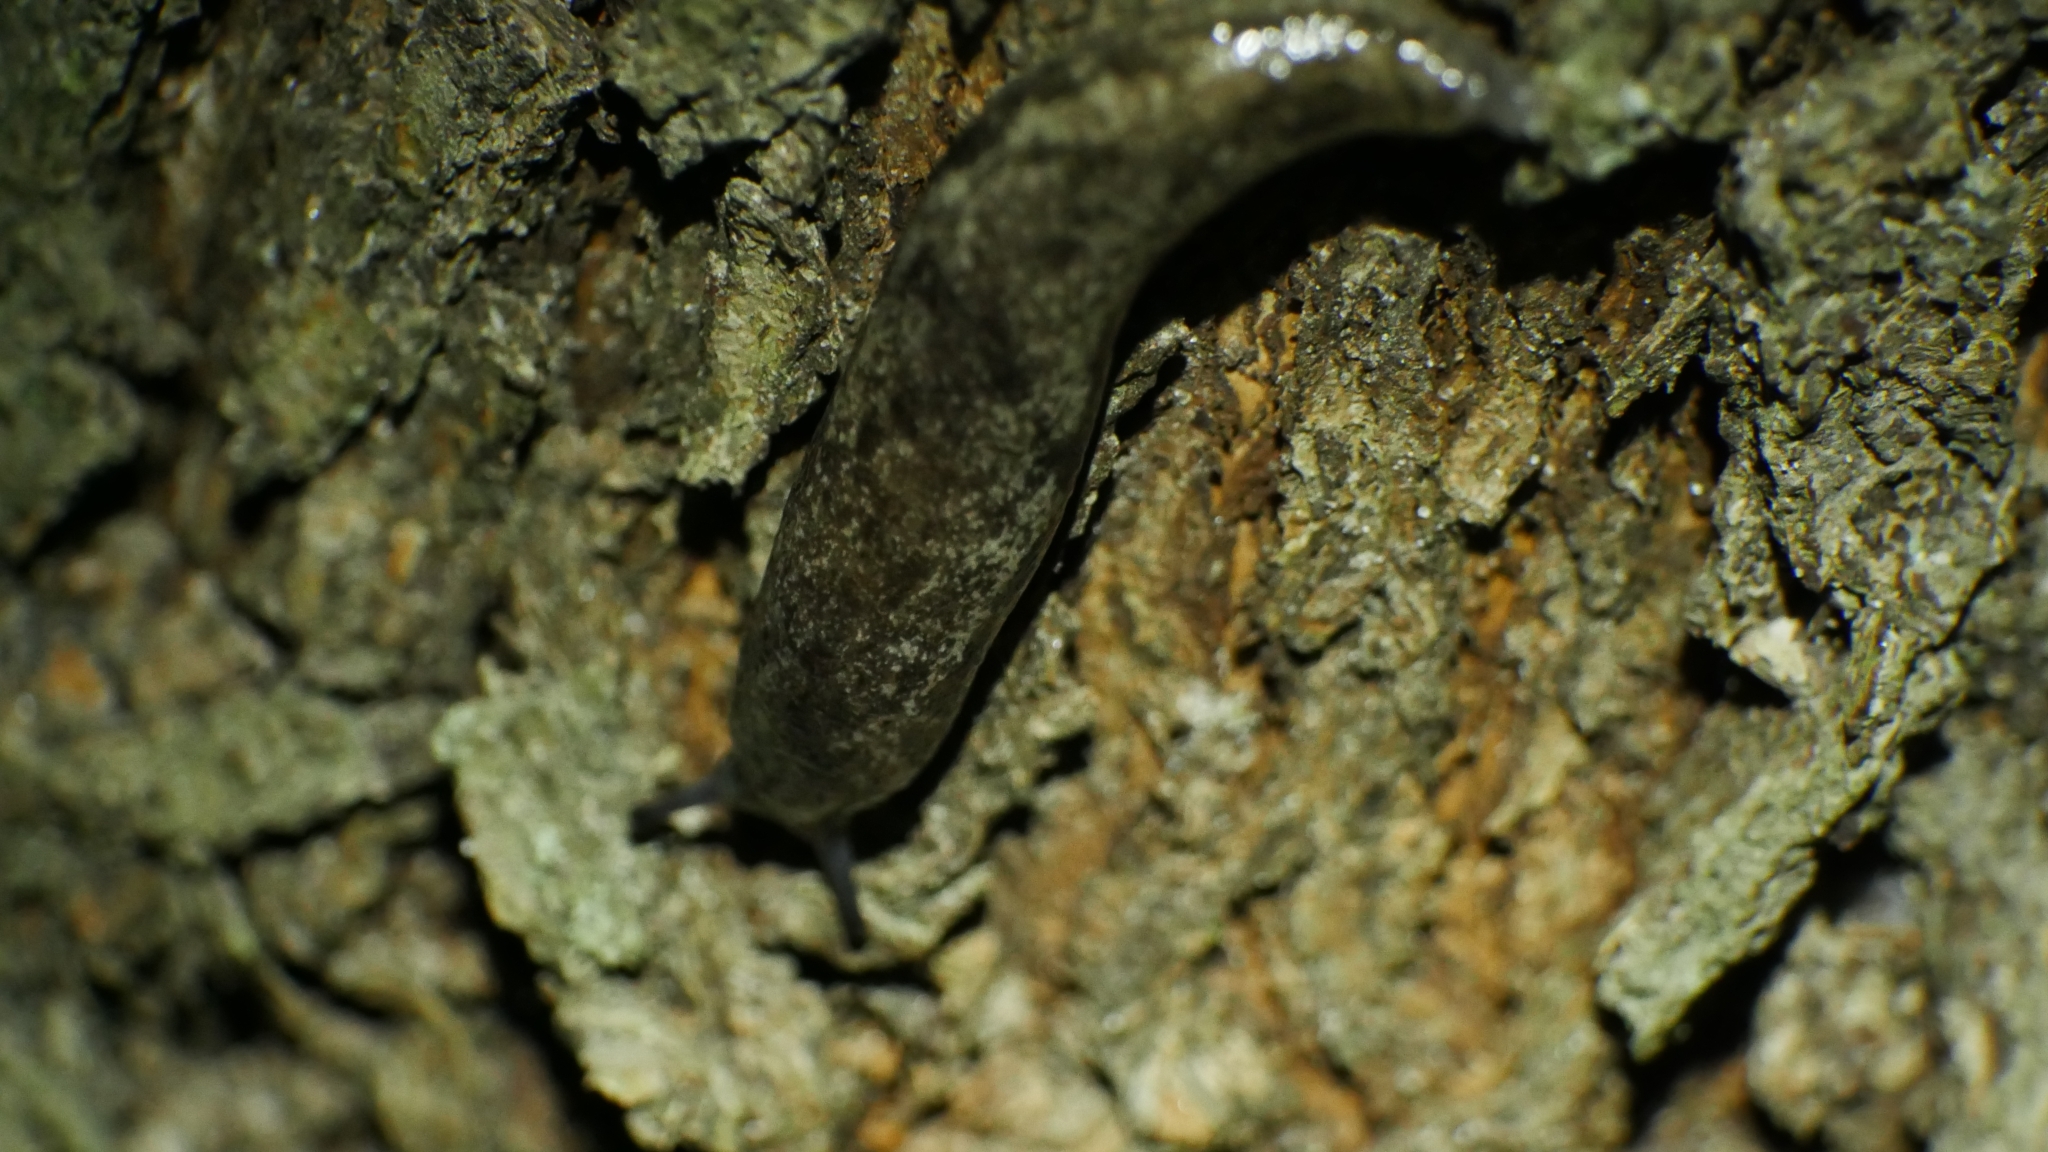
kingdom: Animalia
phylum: Mollusca
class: Gastropoda
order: Stylommatophora
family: Philomycidae
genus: Megapallifera
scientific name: Megapallifera mutabilis
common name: Changeable mantleslug
